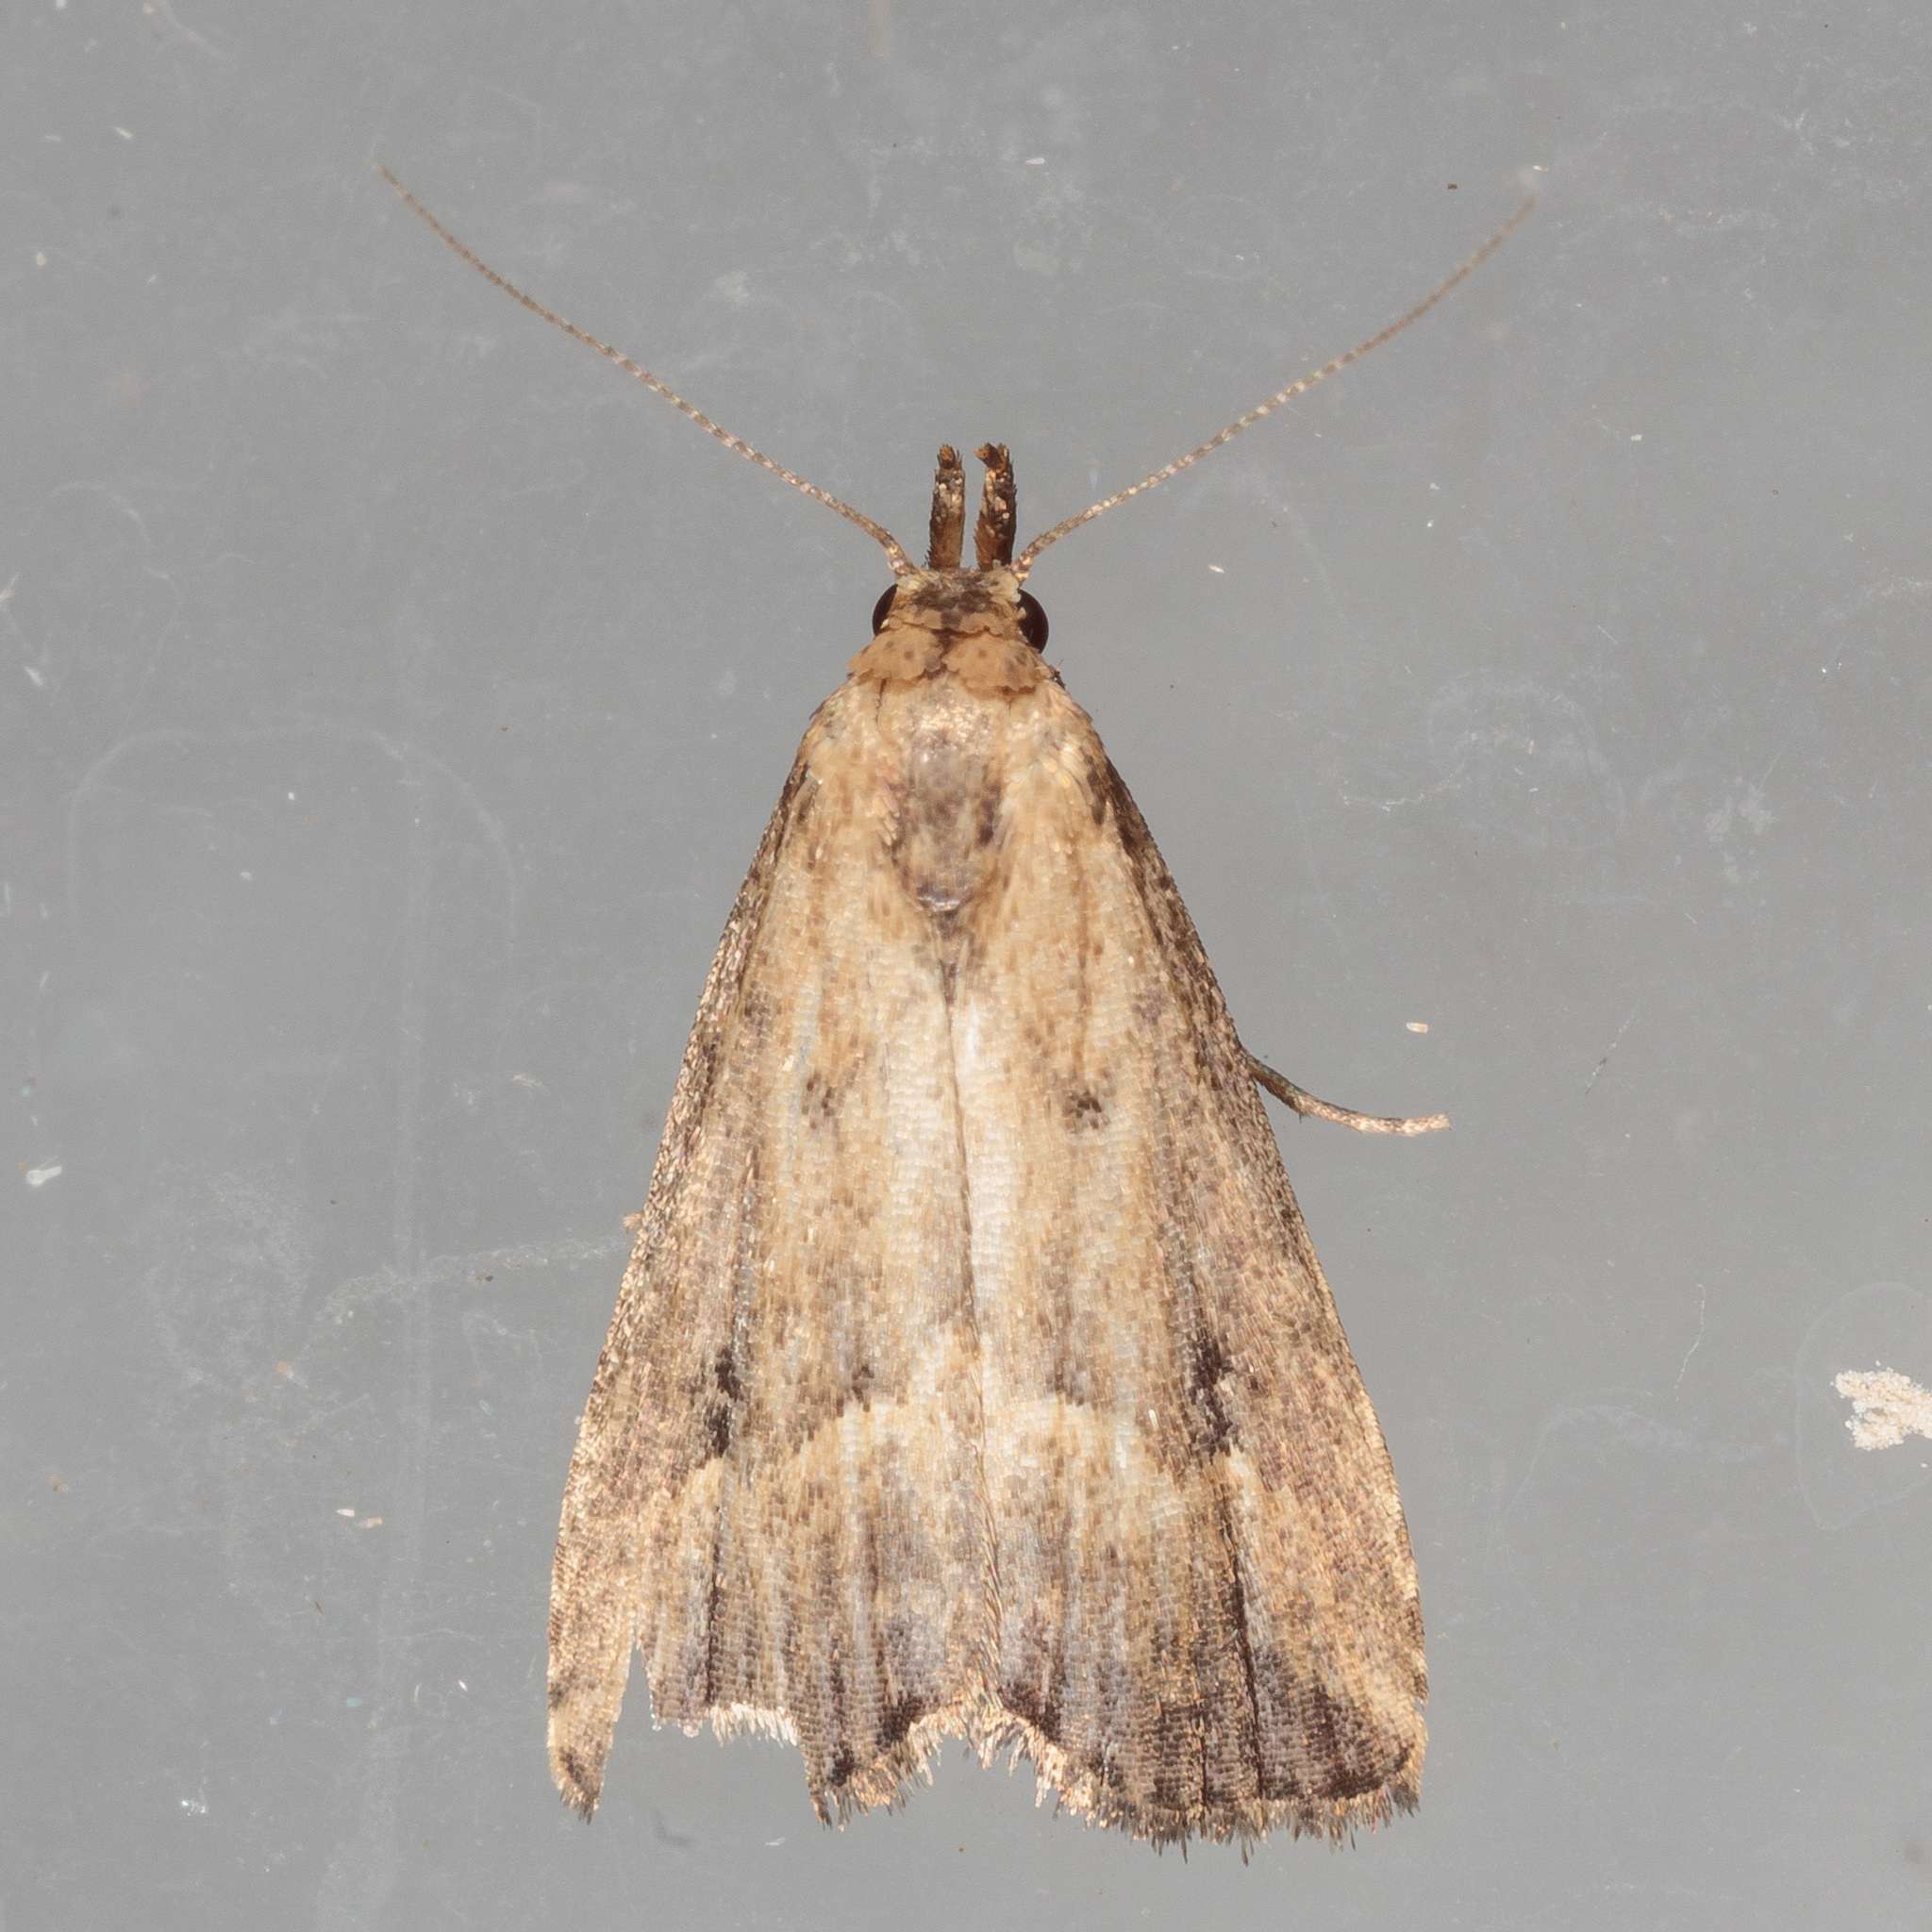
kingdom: Animalia
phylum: Arthropoda
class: Insecta
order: Lepidoptera
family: Erebidae
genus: Schrankia
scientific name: Schrankia
